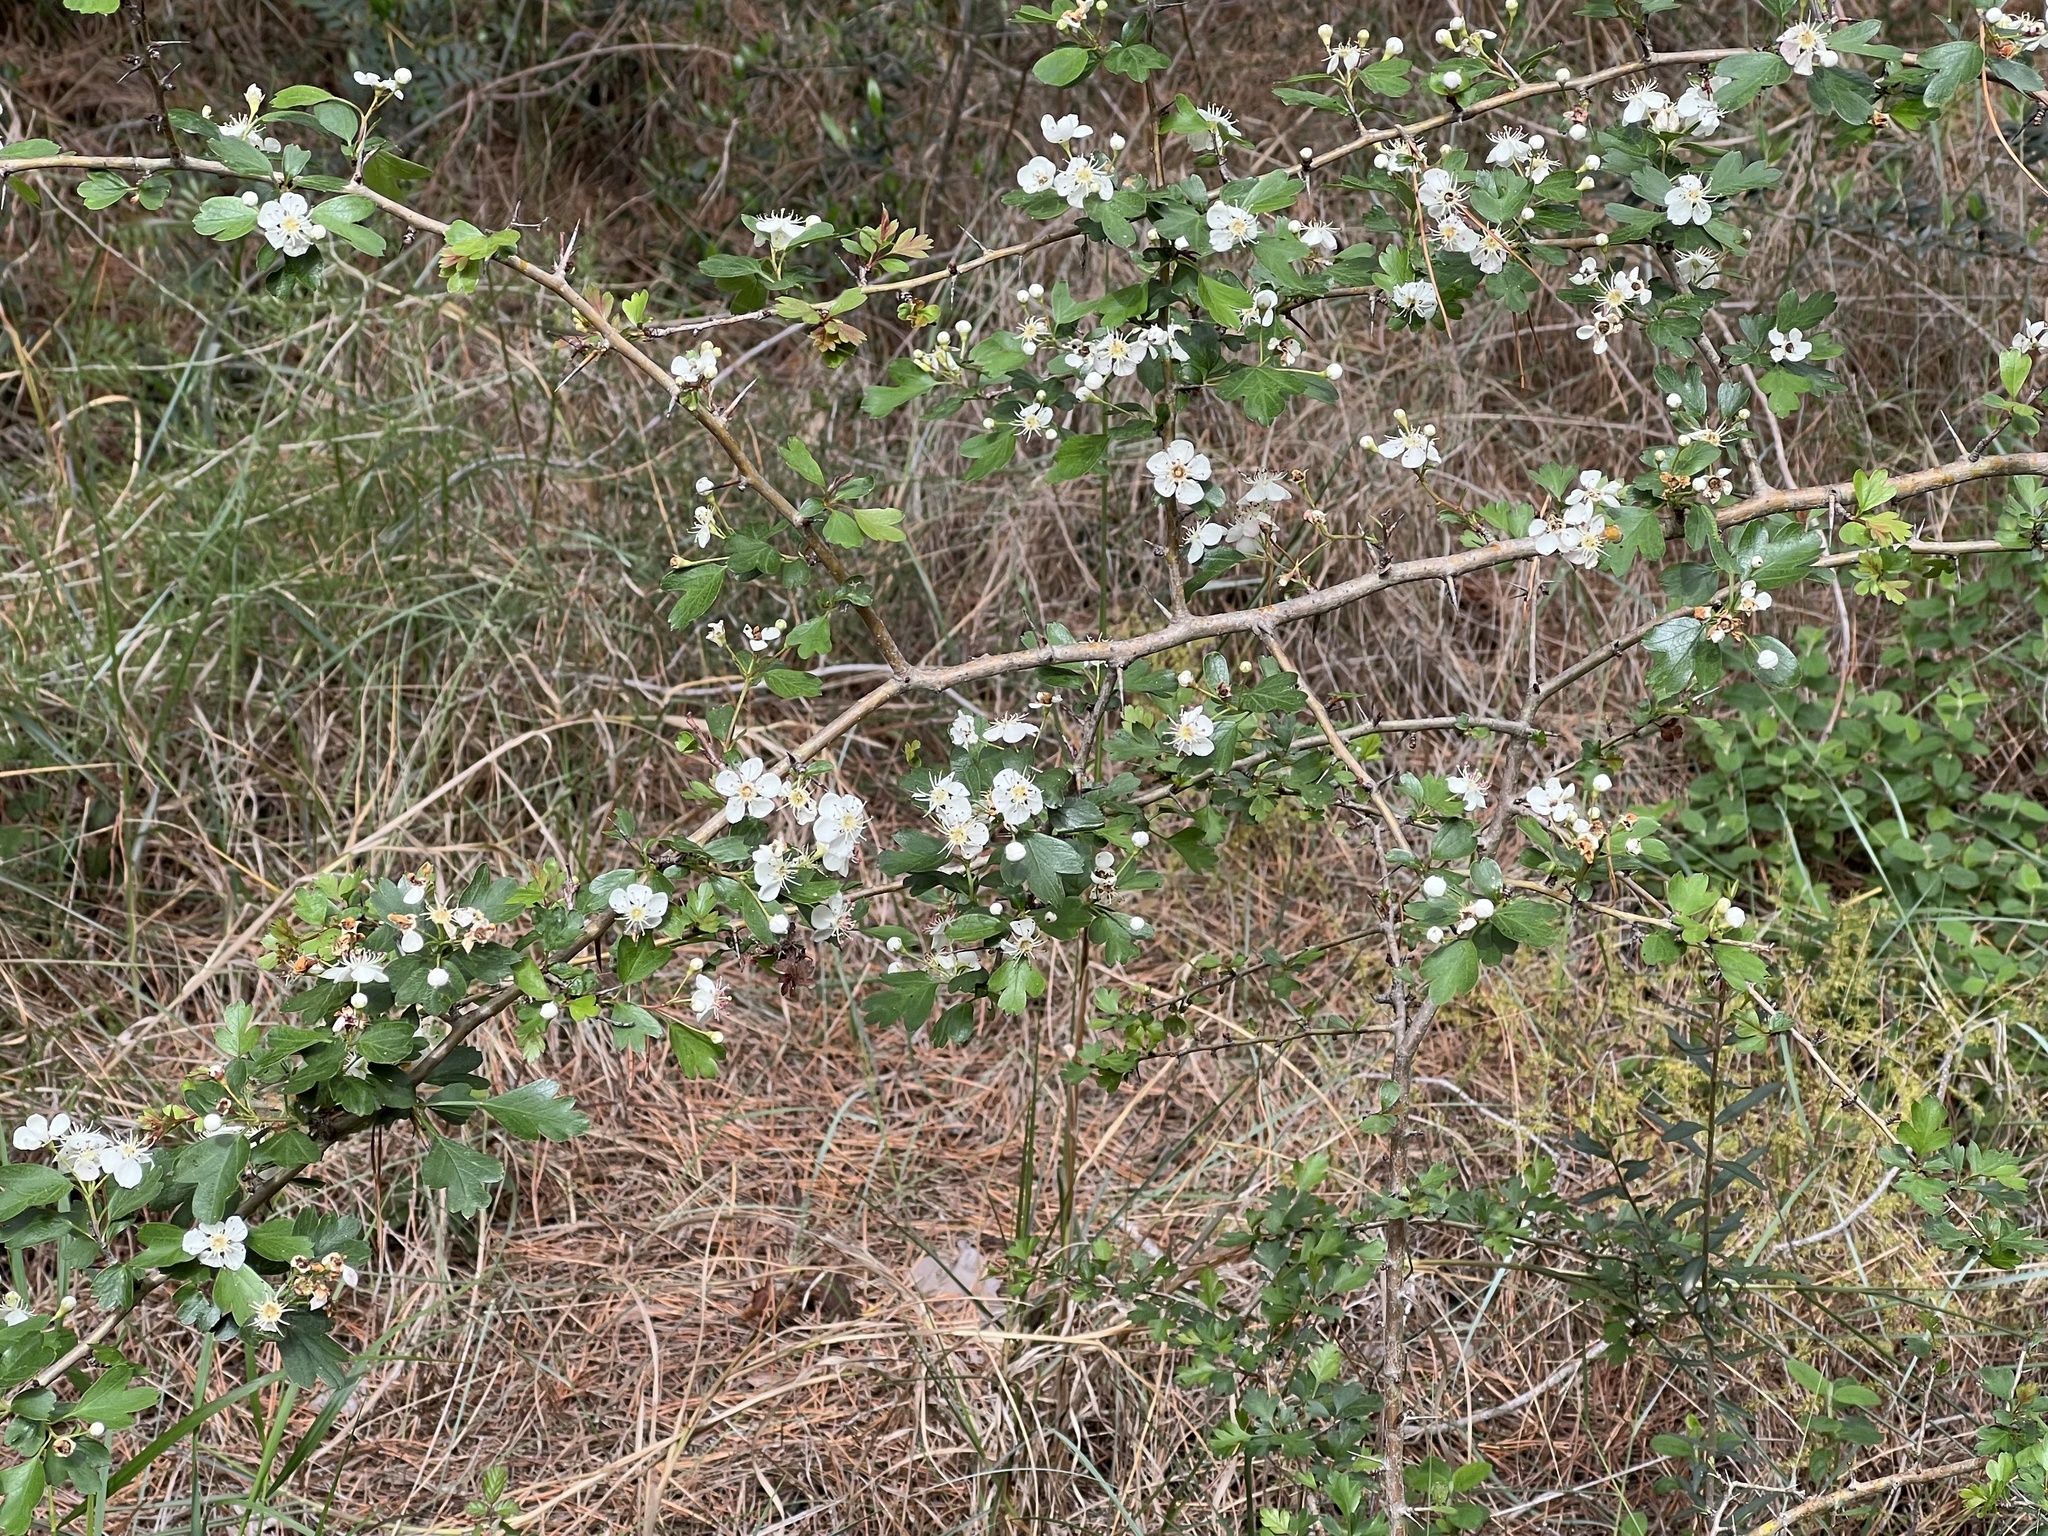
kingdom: Plantae
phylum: Tracheophyta
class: Magnoliopsida
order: Rosales
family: Rosaceae
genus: Crataegus
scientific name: Crataegus monogyna
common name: Hawthorn
